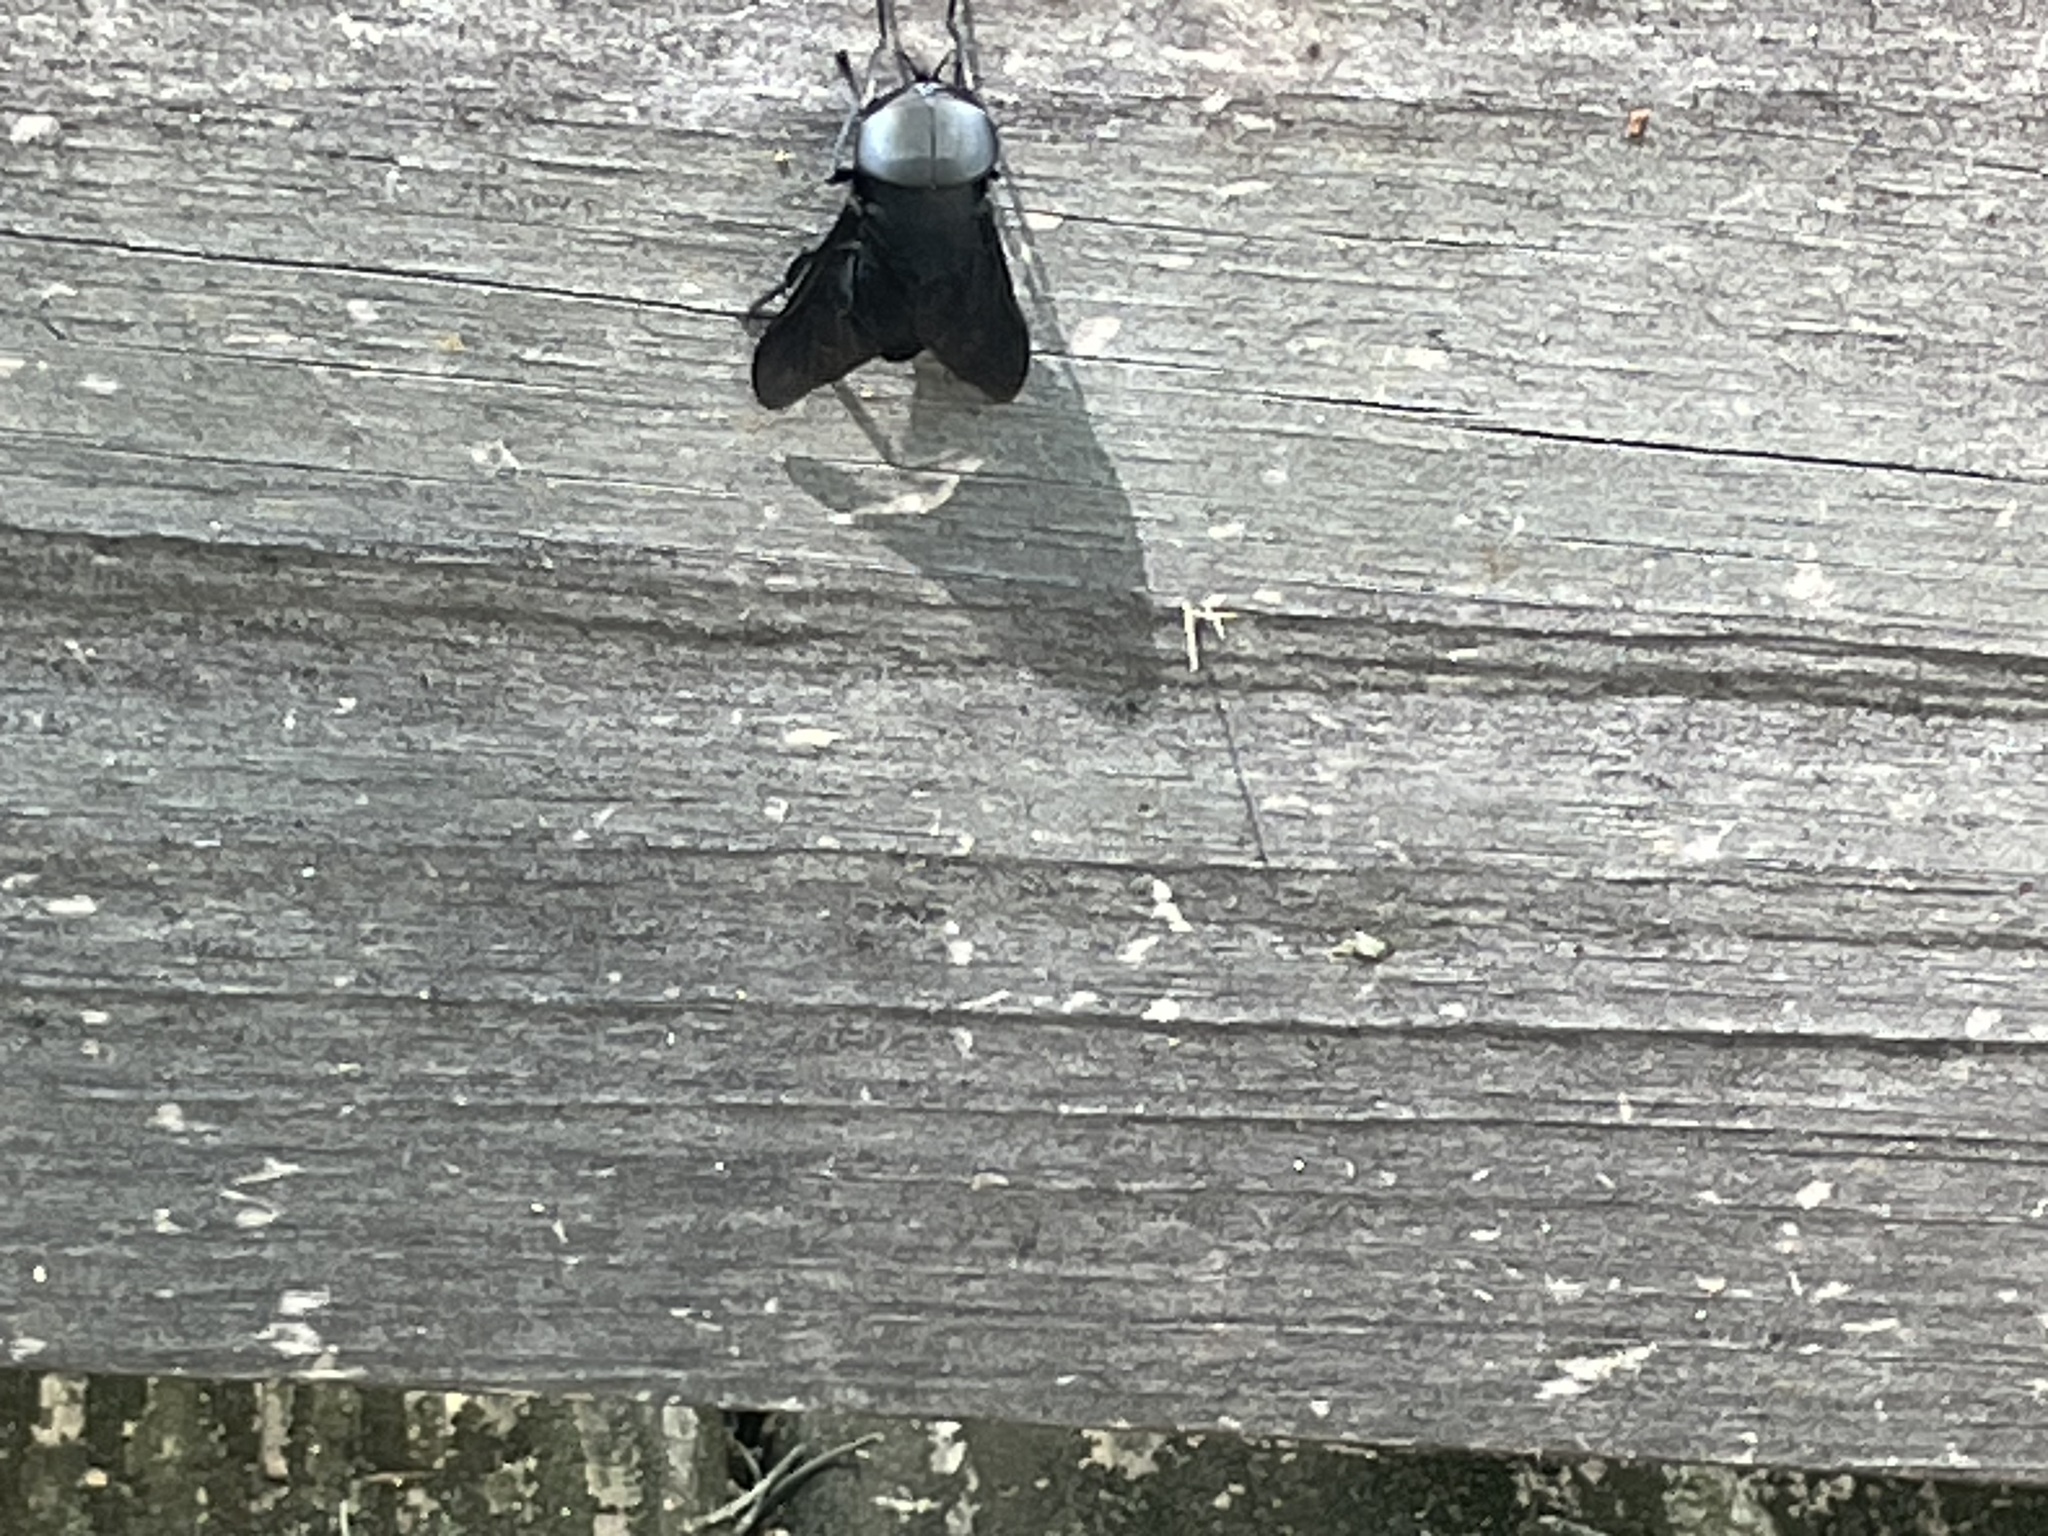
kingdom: Animalia
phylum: Arthropoda
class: Insecta
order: Diptera
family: Tabanidae
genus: Tabanus
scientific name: Tabanus atratus
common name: Black horse fly
